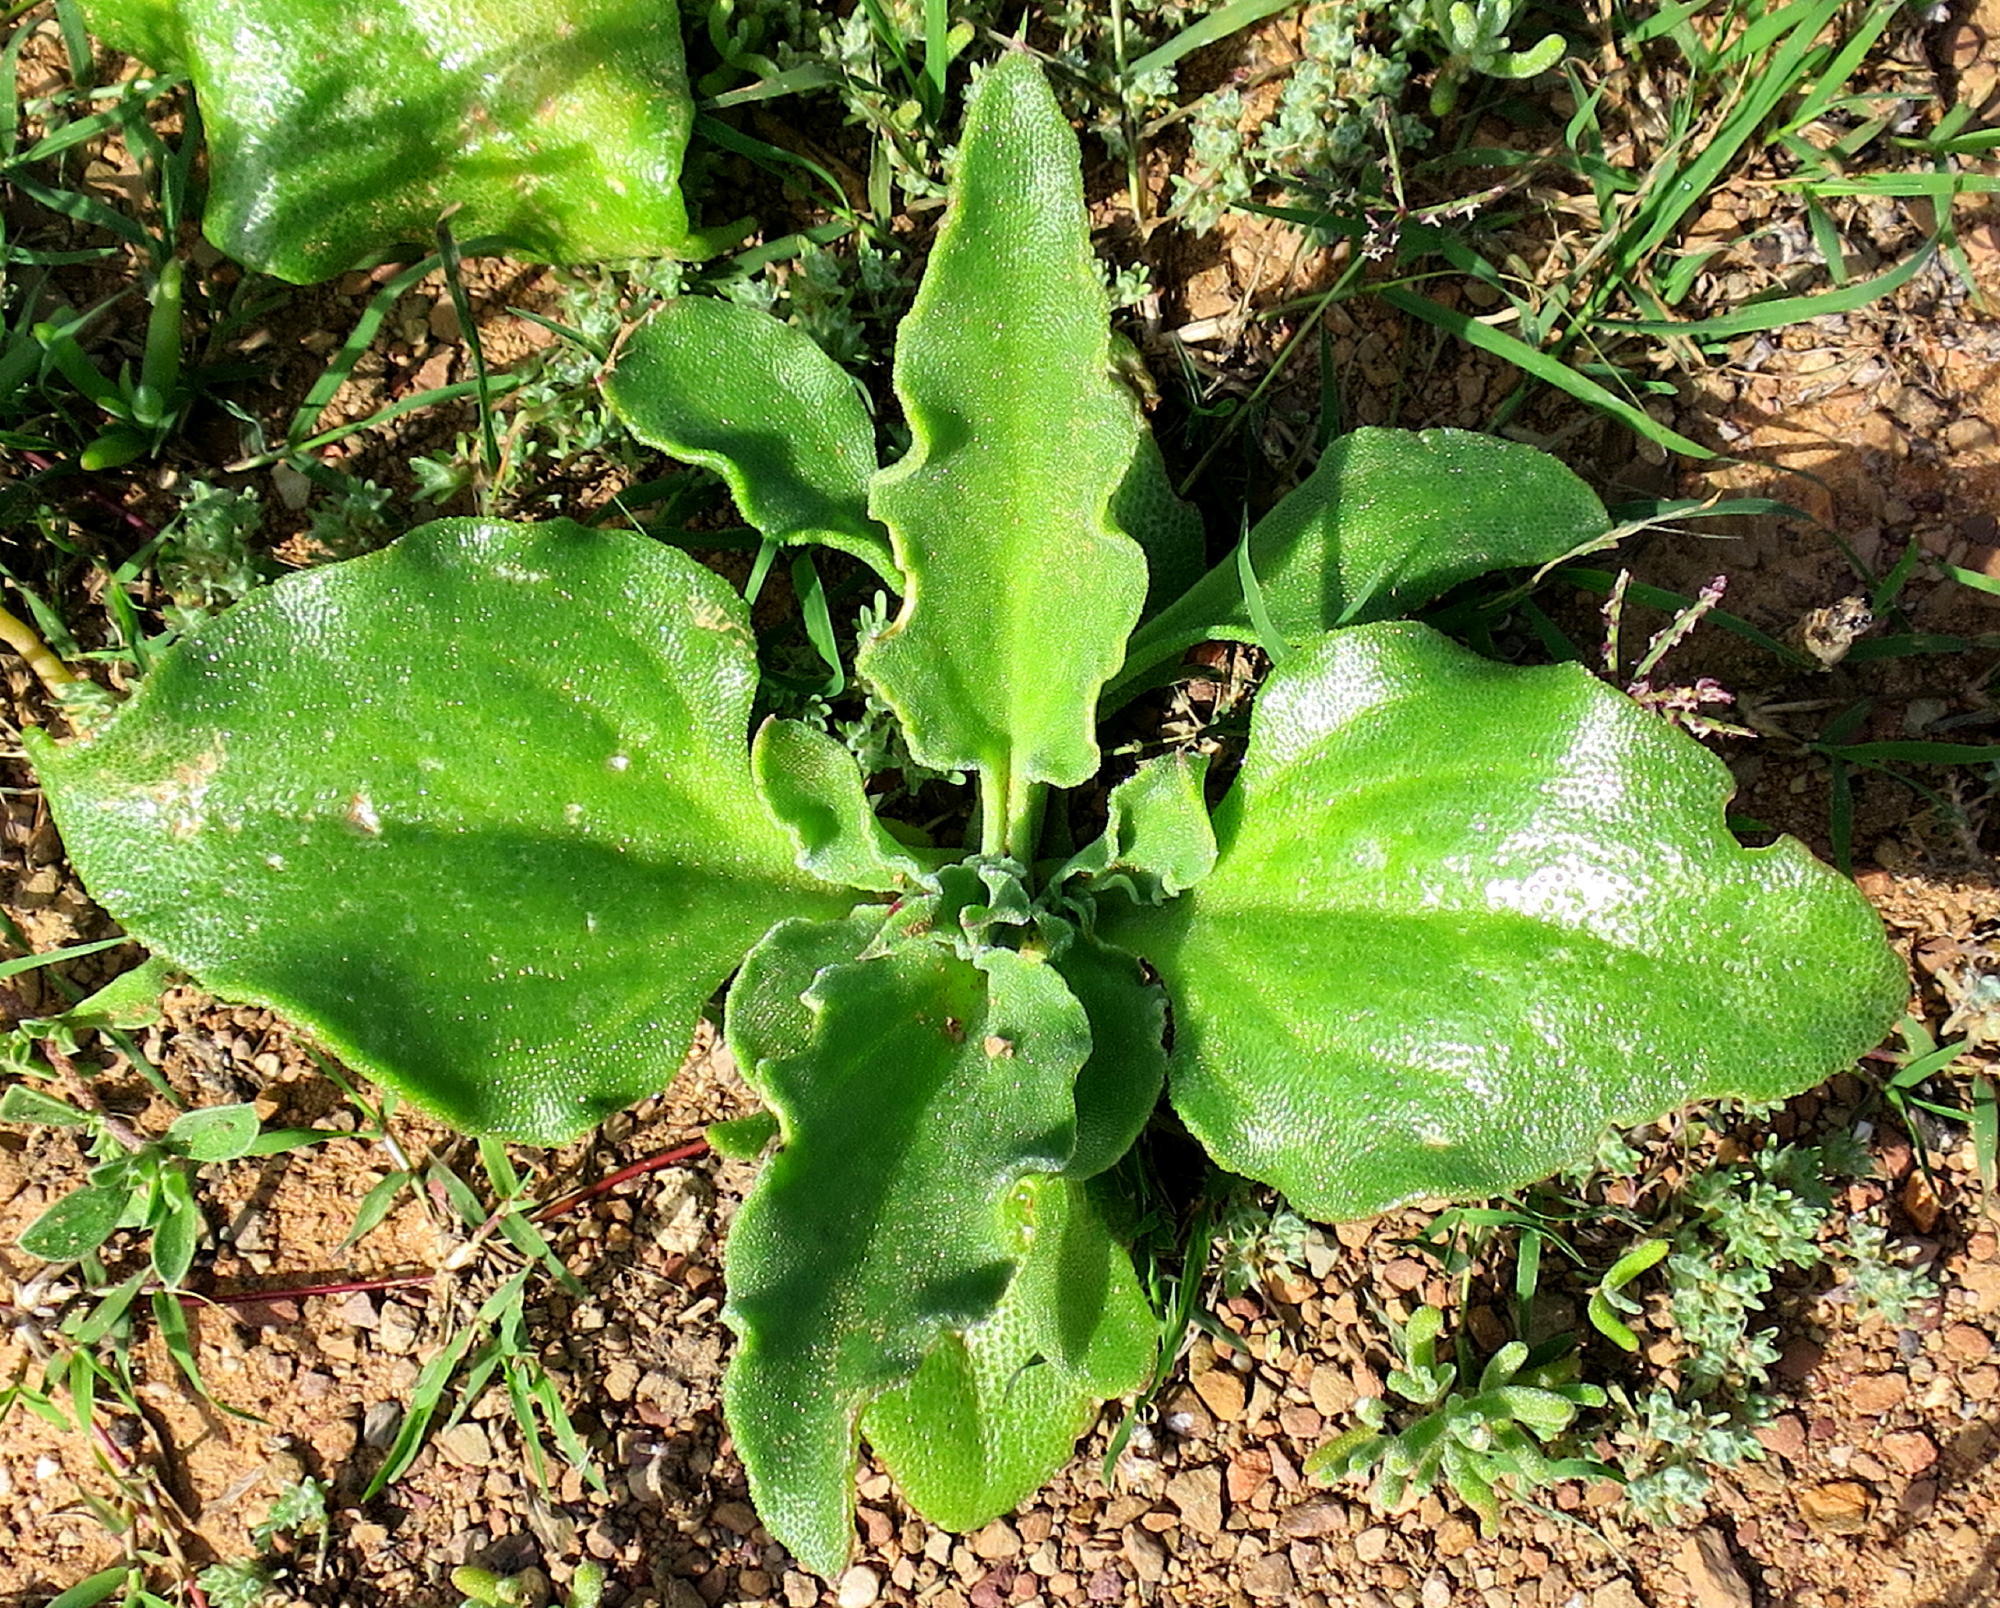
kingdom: Plantae
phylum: Tracheophyta
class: Magnoliopsida
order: Caryophyllales
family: Aizoaceae
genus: Mesembryanthemum
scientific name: Mesembryanthemum crystallinum
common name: Common iceplant
